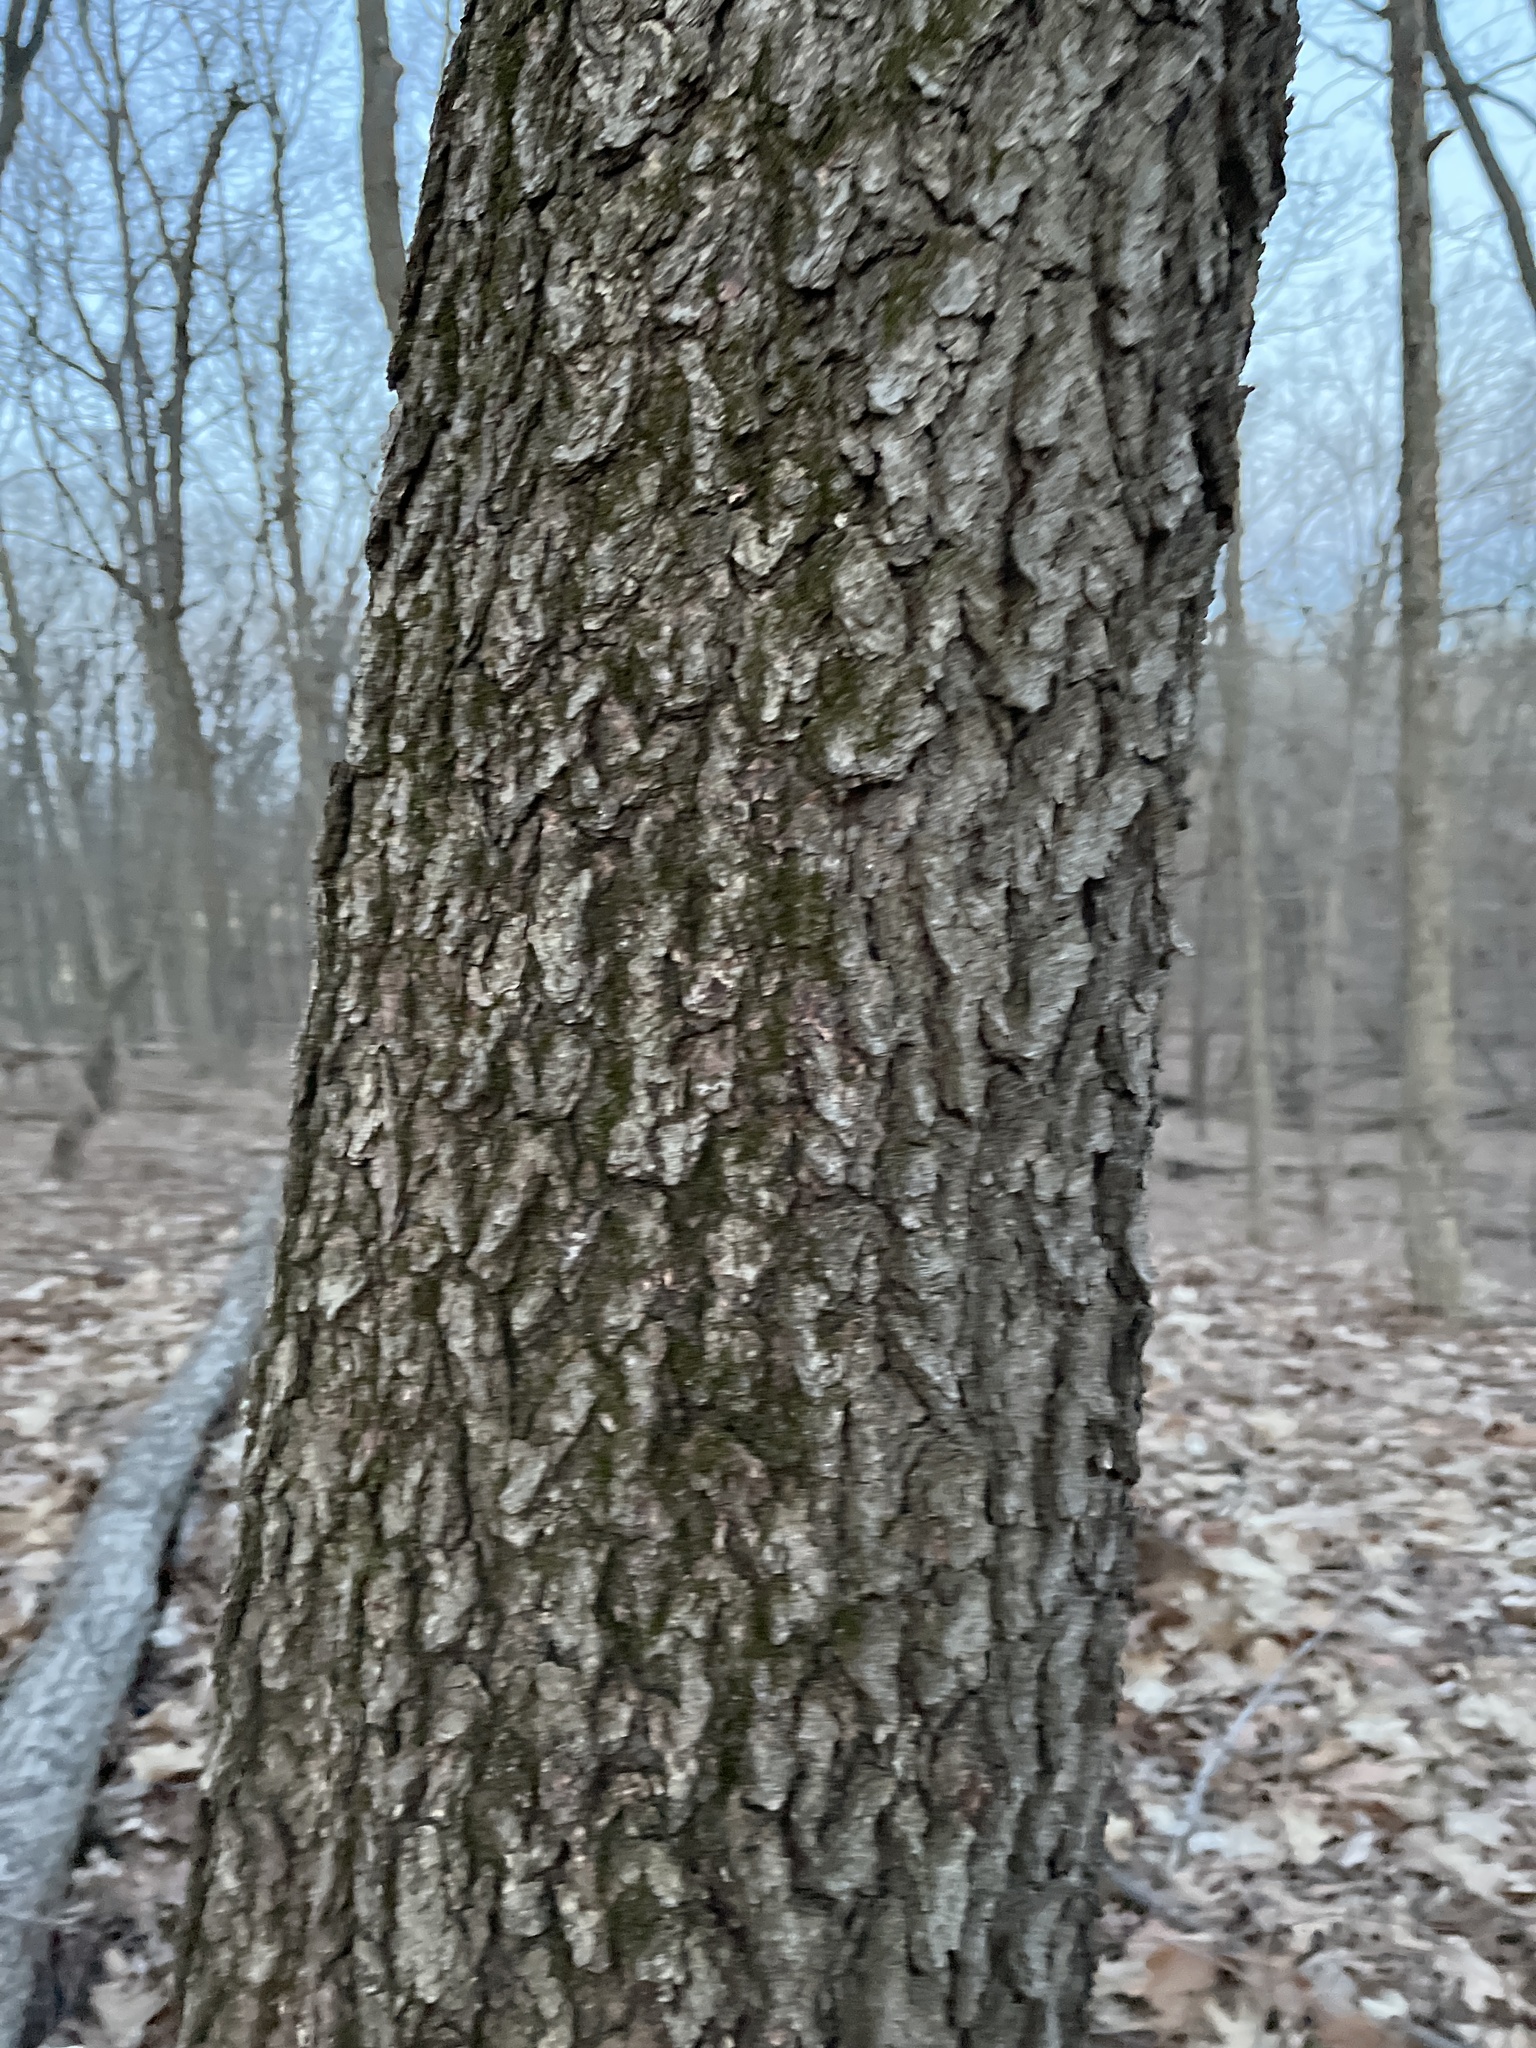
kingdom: Plantae
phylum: Tracheophyta
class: Magnoliopsida
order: Rosales
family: Rosaceae
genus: Prunus
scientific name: Prunus serotina
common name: Black cherry
